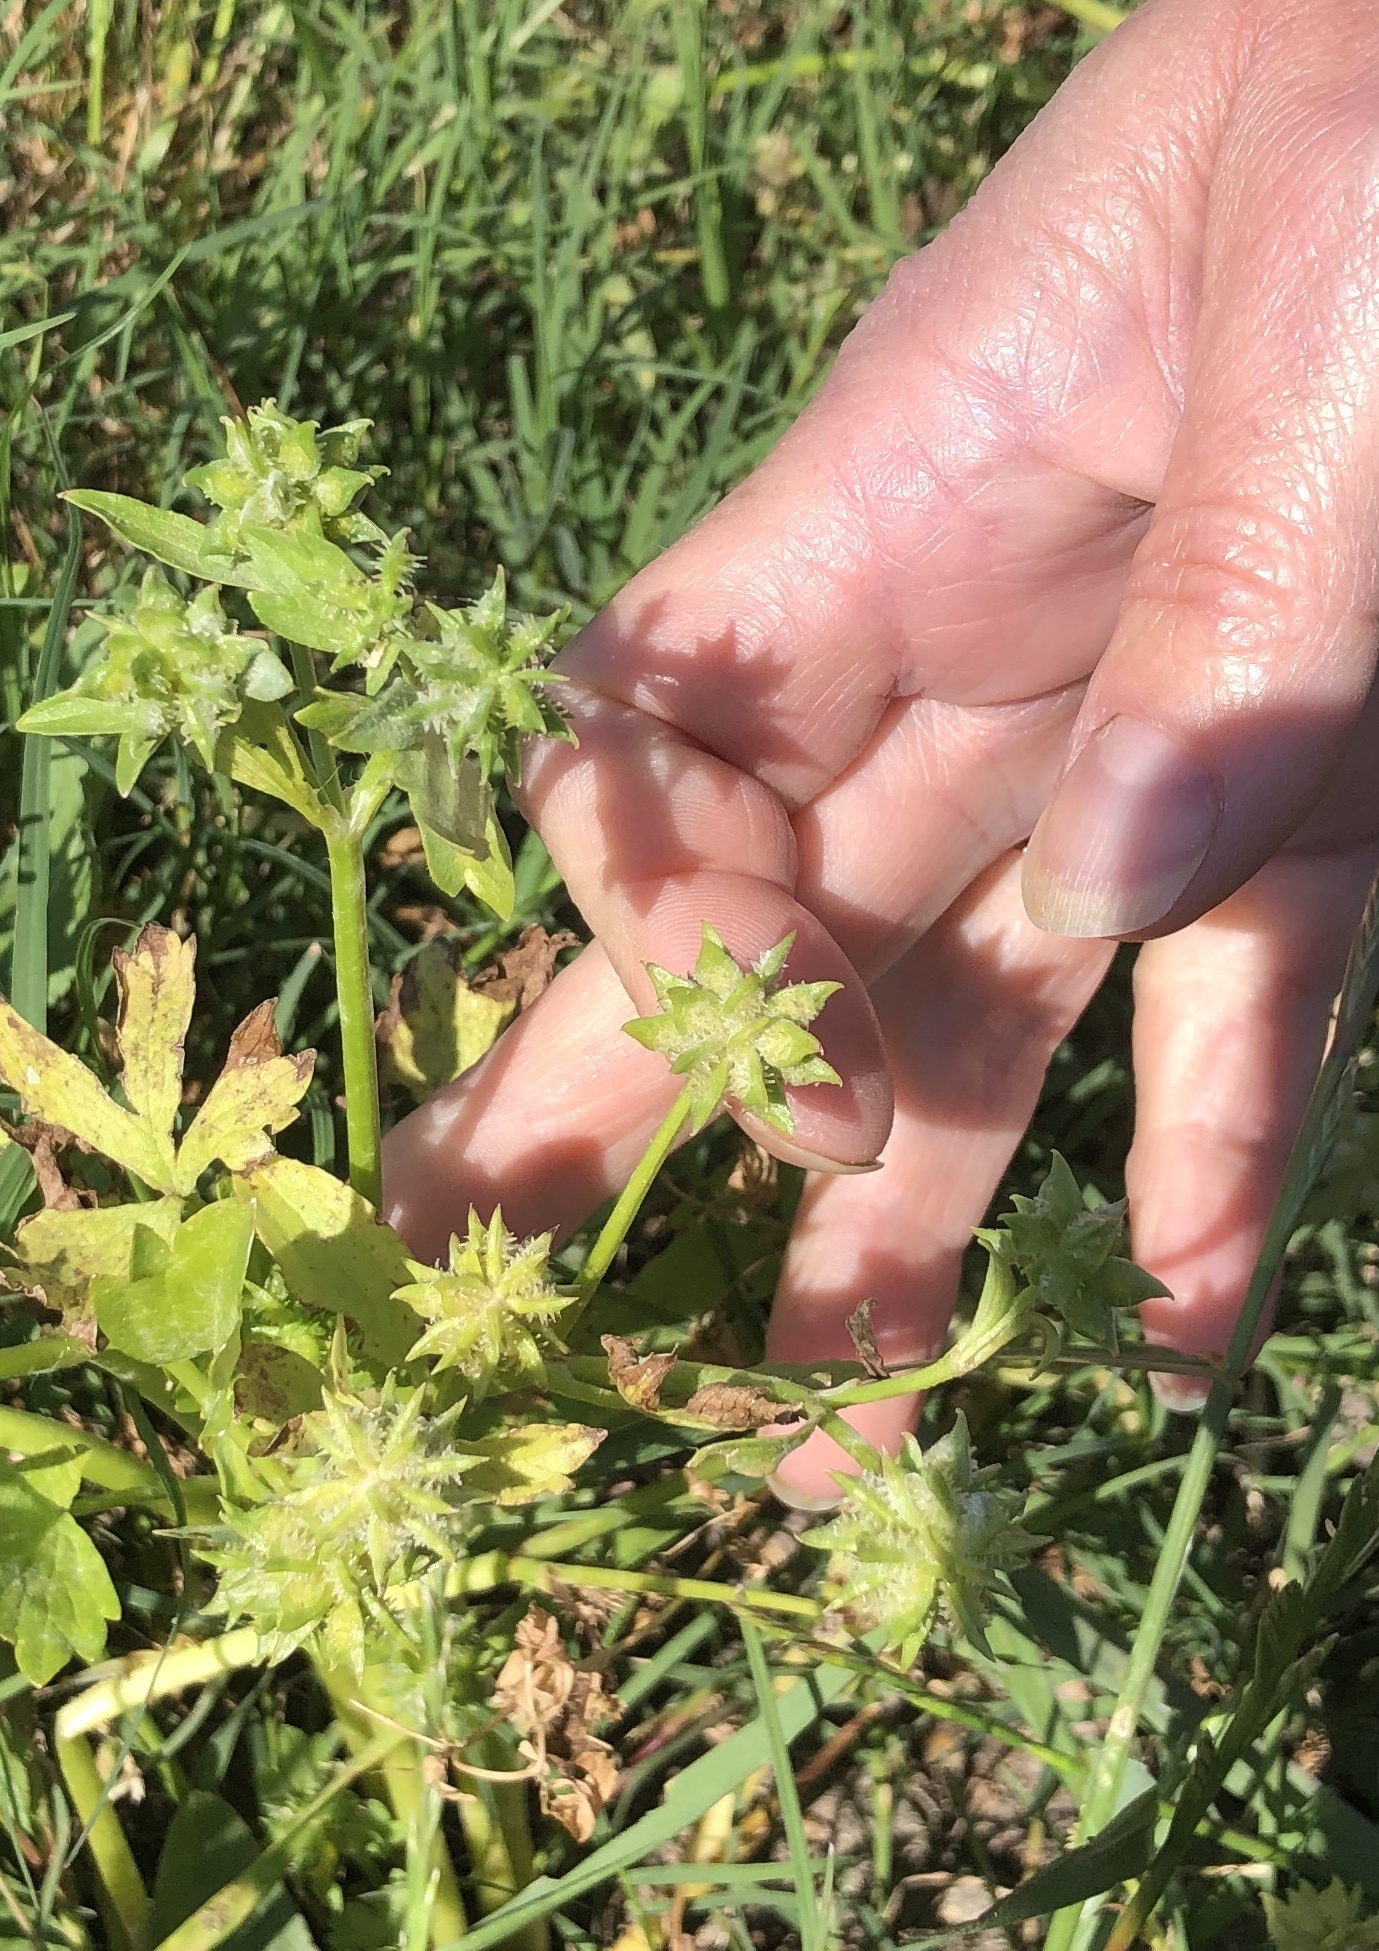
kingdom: Plantae
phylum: Tracheophyta
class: Magnoliopsida
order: Ranunculales
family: Ranunculaceae
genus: Ranunculus
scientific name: Ranunculus muricatus
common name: Rough-fruited buttercup
